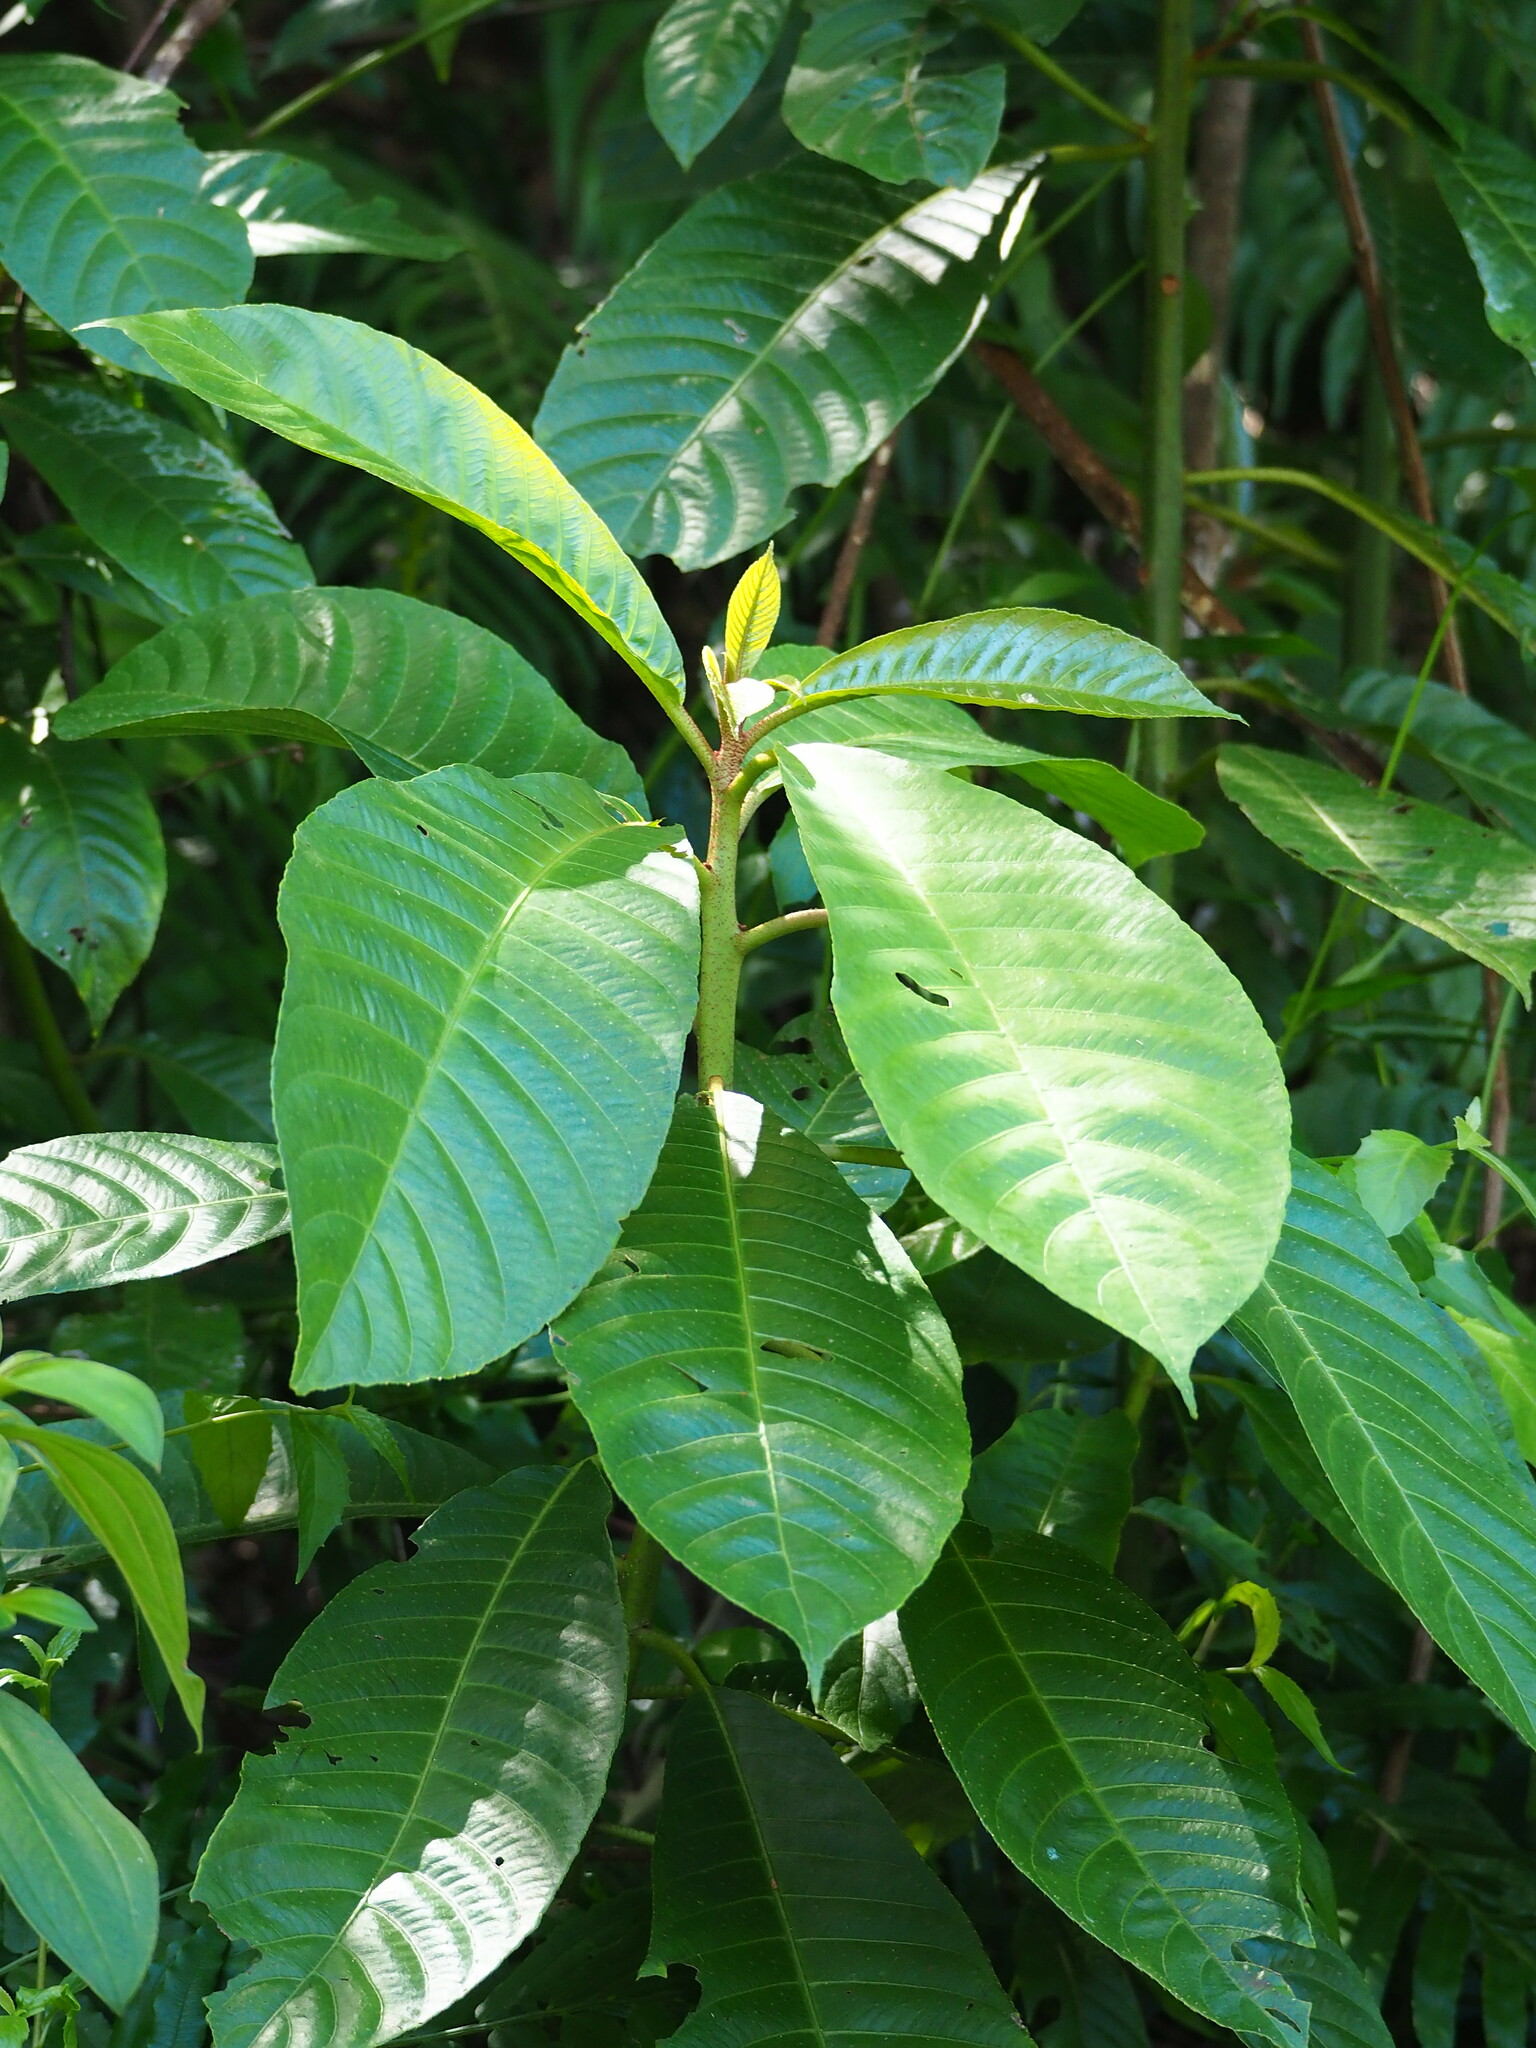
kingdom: Plantae
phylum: Tracheophyta
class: Magnoliopsida
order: Ericales
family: Actinidiaceae
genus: Saurauia
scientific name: Saurauia tristyla
